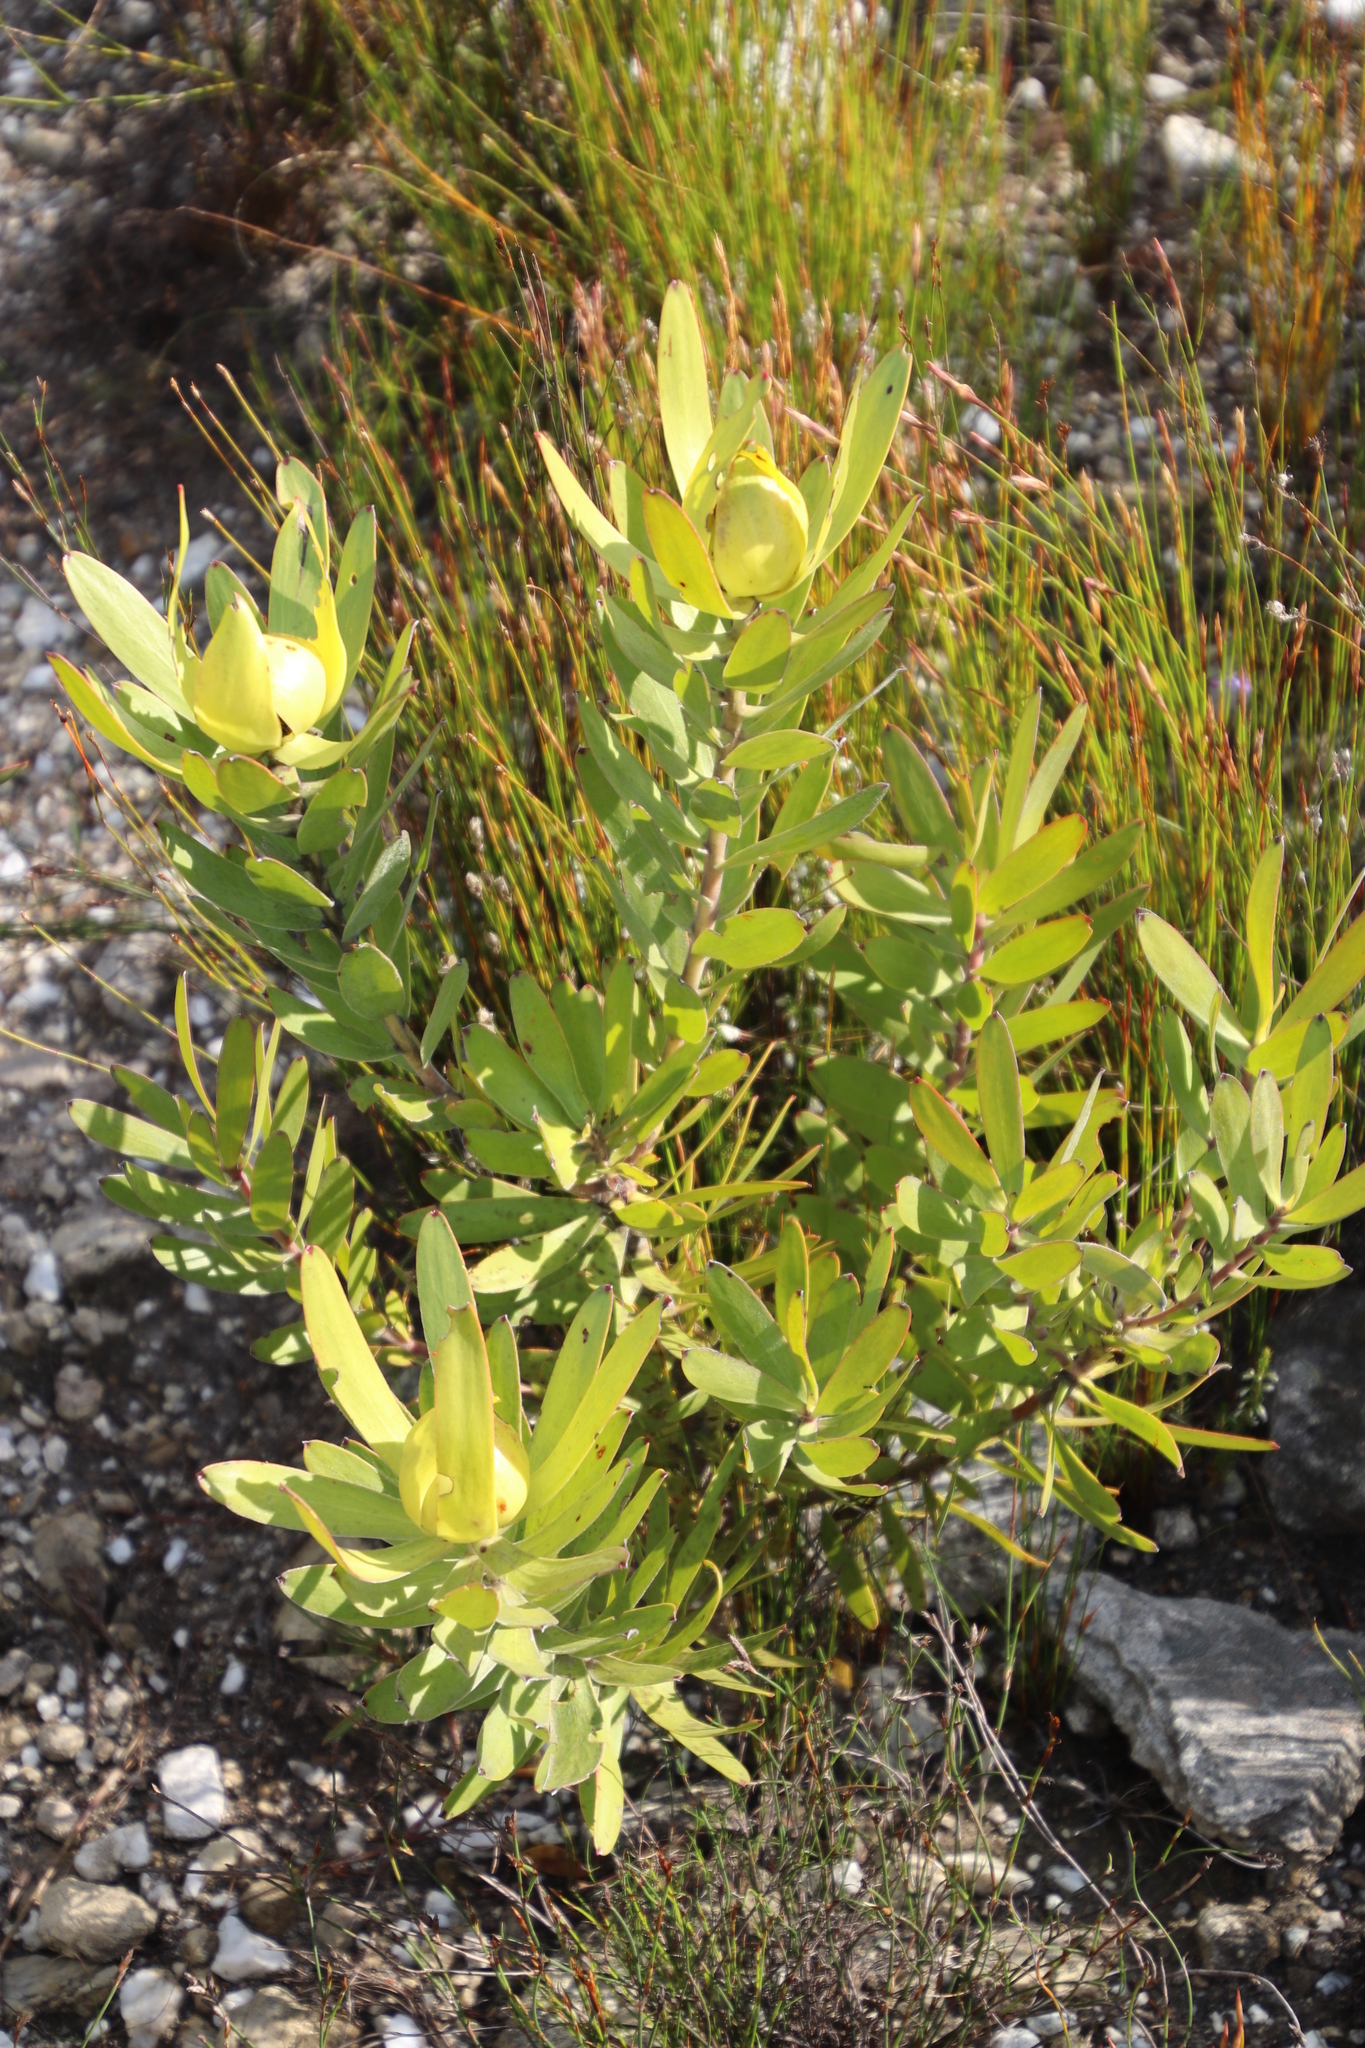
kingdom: Plantae
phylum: Tracheophyta
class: Magnoliopsida
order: Proteales
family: Proteaceae
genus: Leucadendron
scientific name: Leucadendron laureolum
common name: Golden sunshinebush
